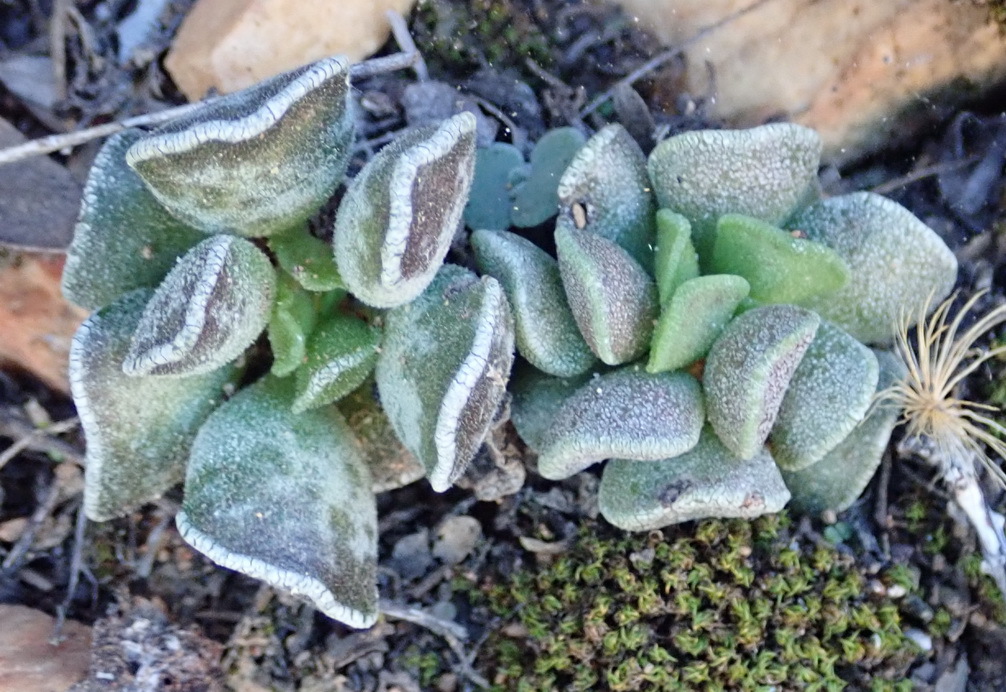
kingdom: Plantae
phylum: Tracheophyta
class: Magnoliopsida
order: Saxifragales
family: Crassulaceae
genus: Adromischus
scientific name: Adromischus cristatus
